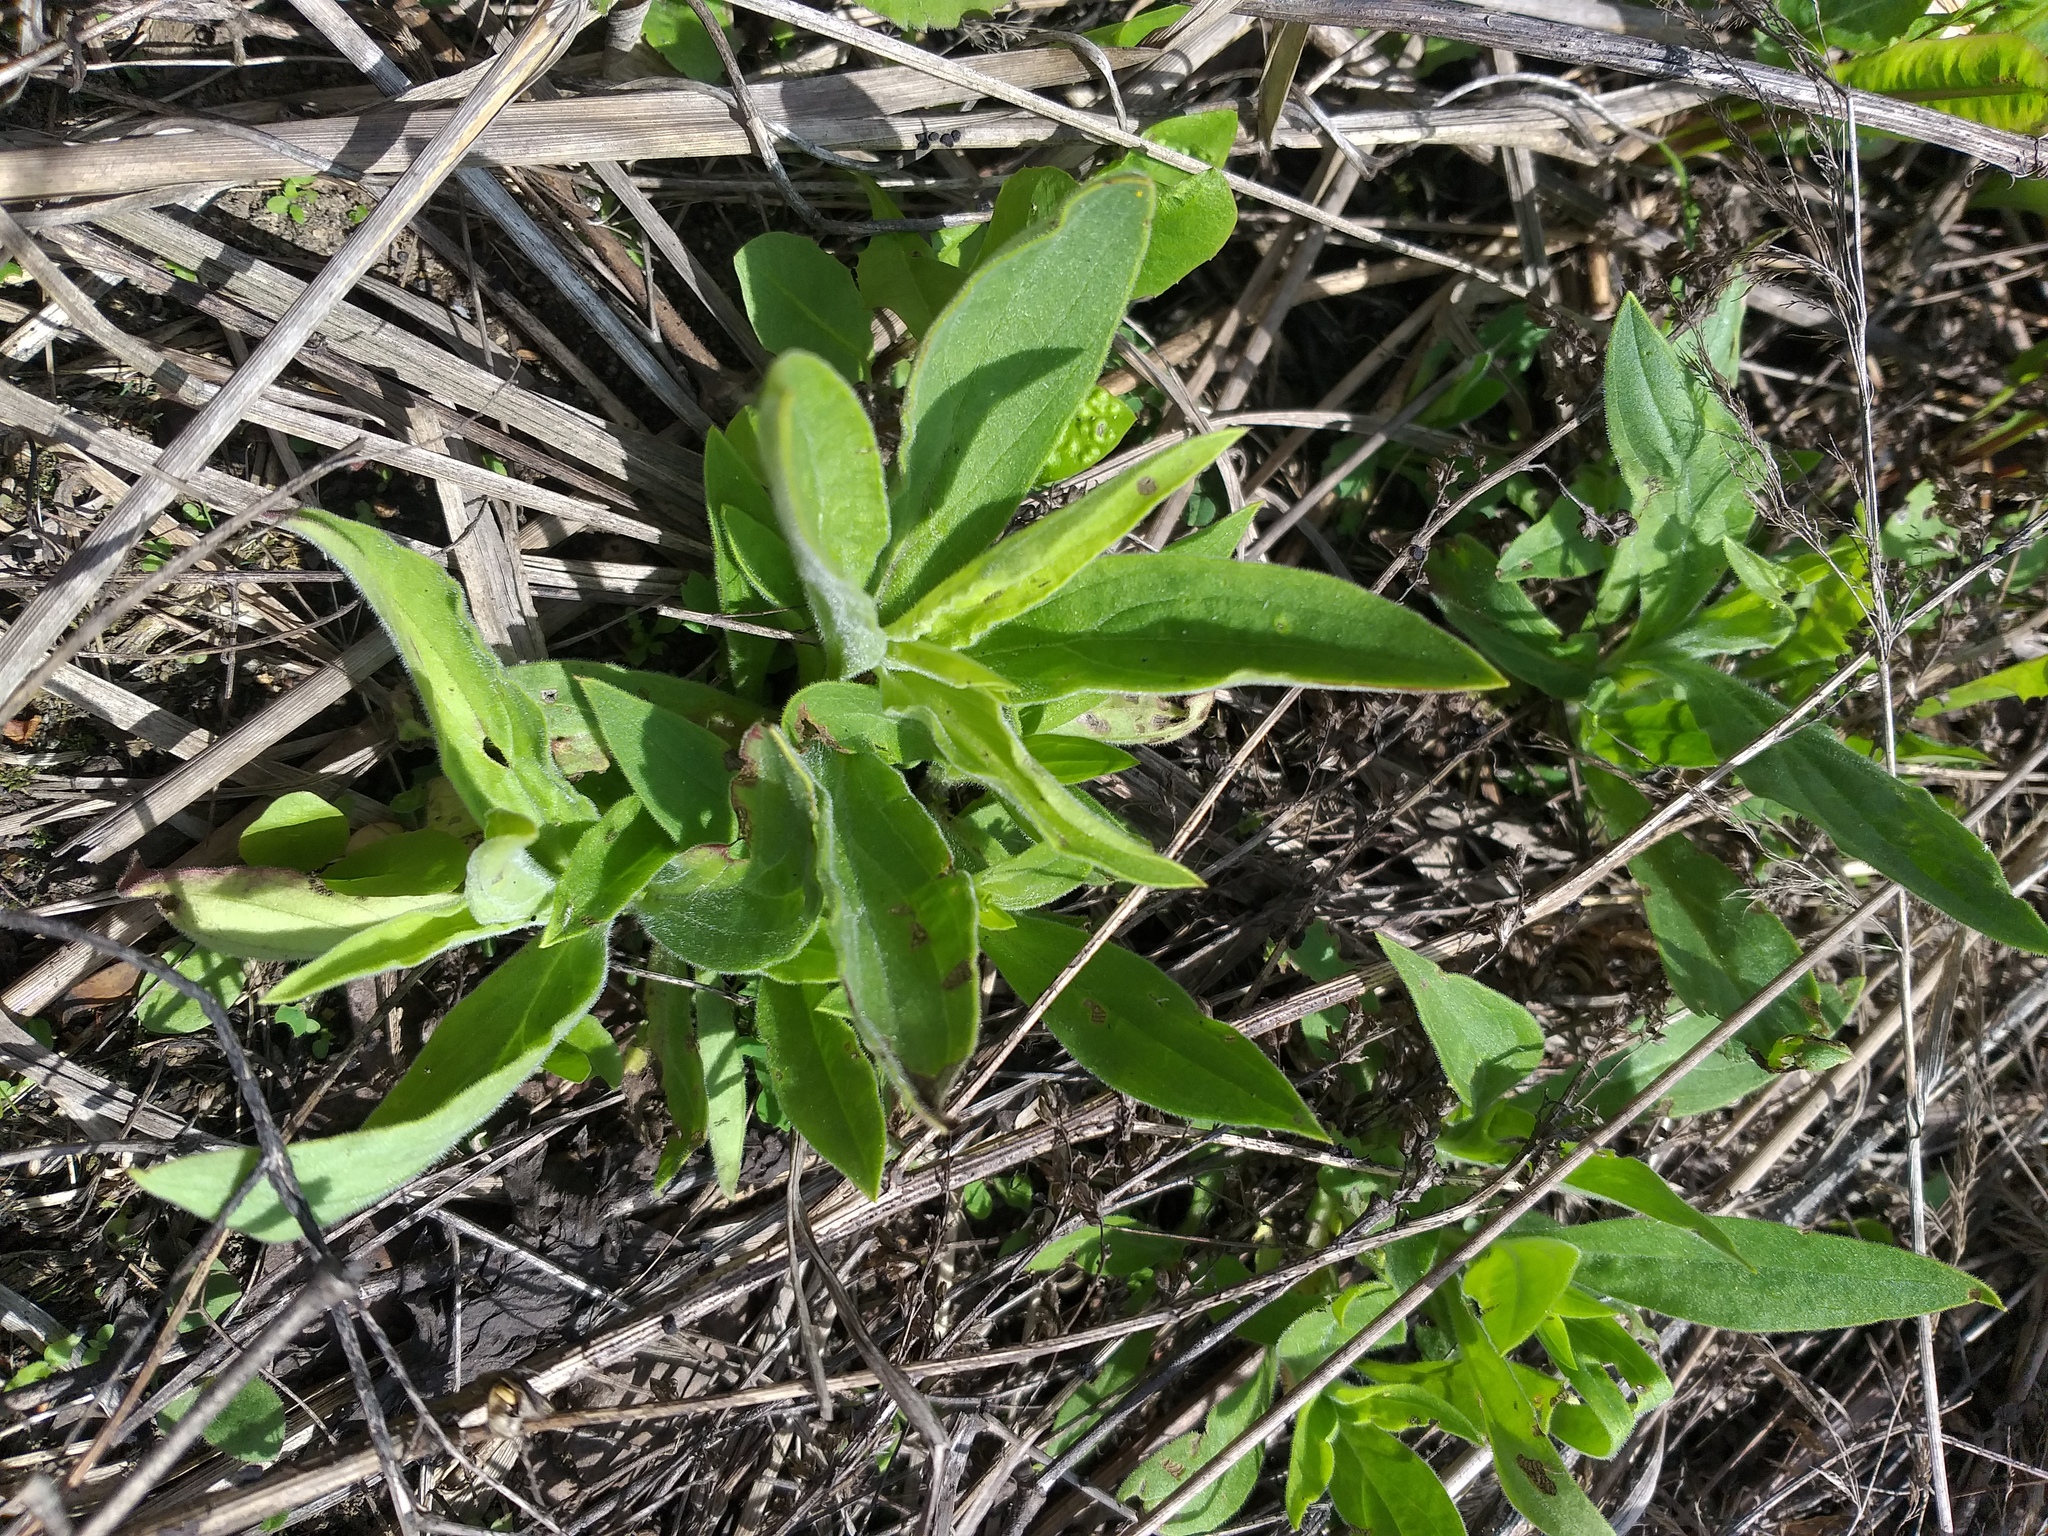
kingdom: Plantae
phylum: Tracheophyta
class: Magnoliopsida
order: Caryophyllales
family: Caryophyllaceae
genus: Silene
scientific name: Silene latifolia
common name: White campion
